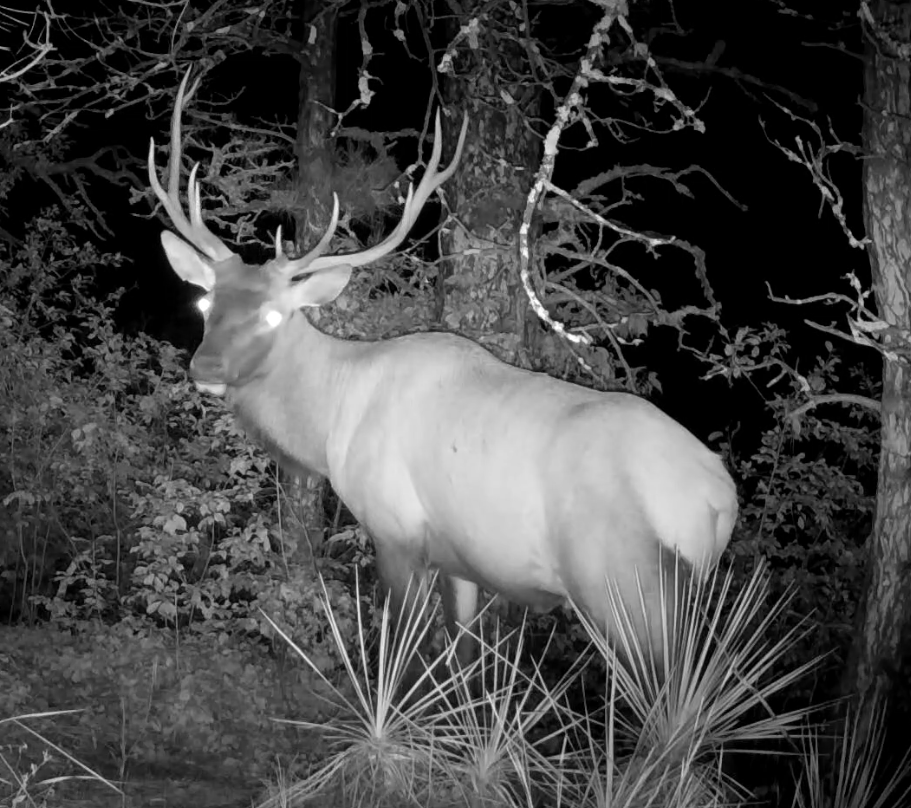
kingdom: Animalia
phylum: Chordata
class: Mammalia
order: Artiodactyla
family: Cervidae
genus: Cervus
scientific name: Cervus elaphus
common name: Red deer
